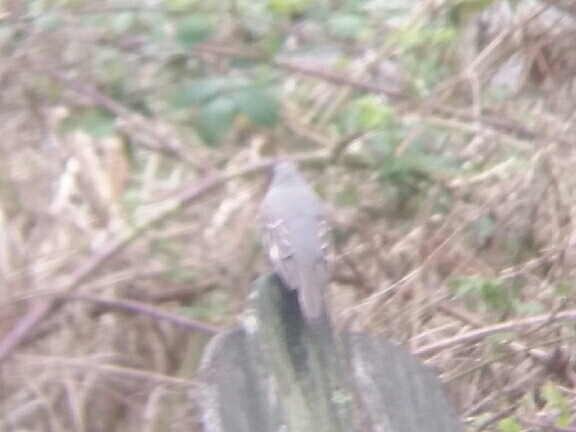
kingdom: Animalia
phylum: Chordata
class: Aves
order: Passeriformes
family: Turdidae
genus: Myadestes
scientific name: Myadestes townsendi
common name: Townsend's solitaire
